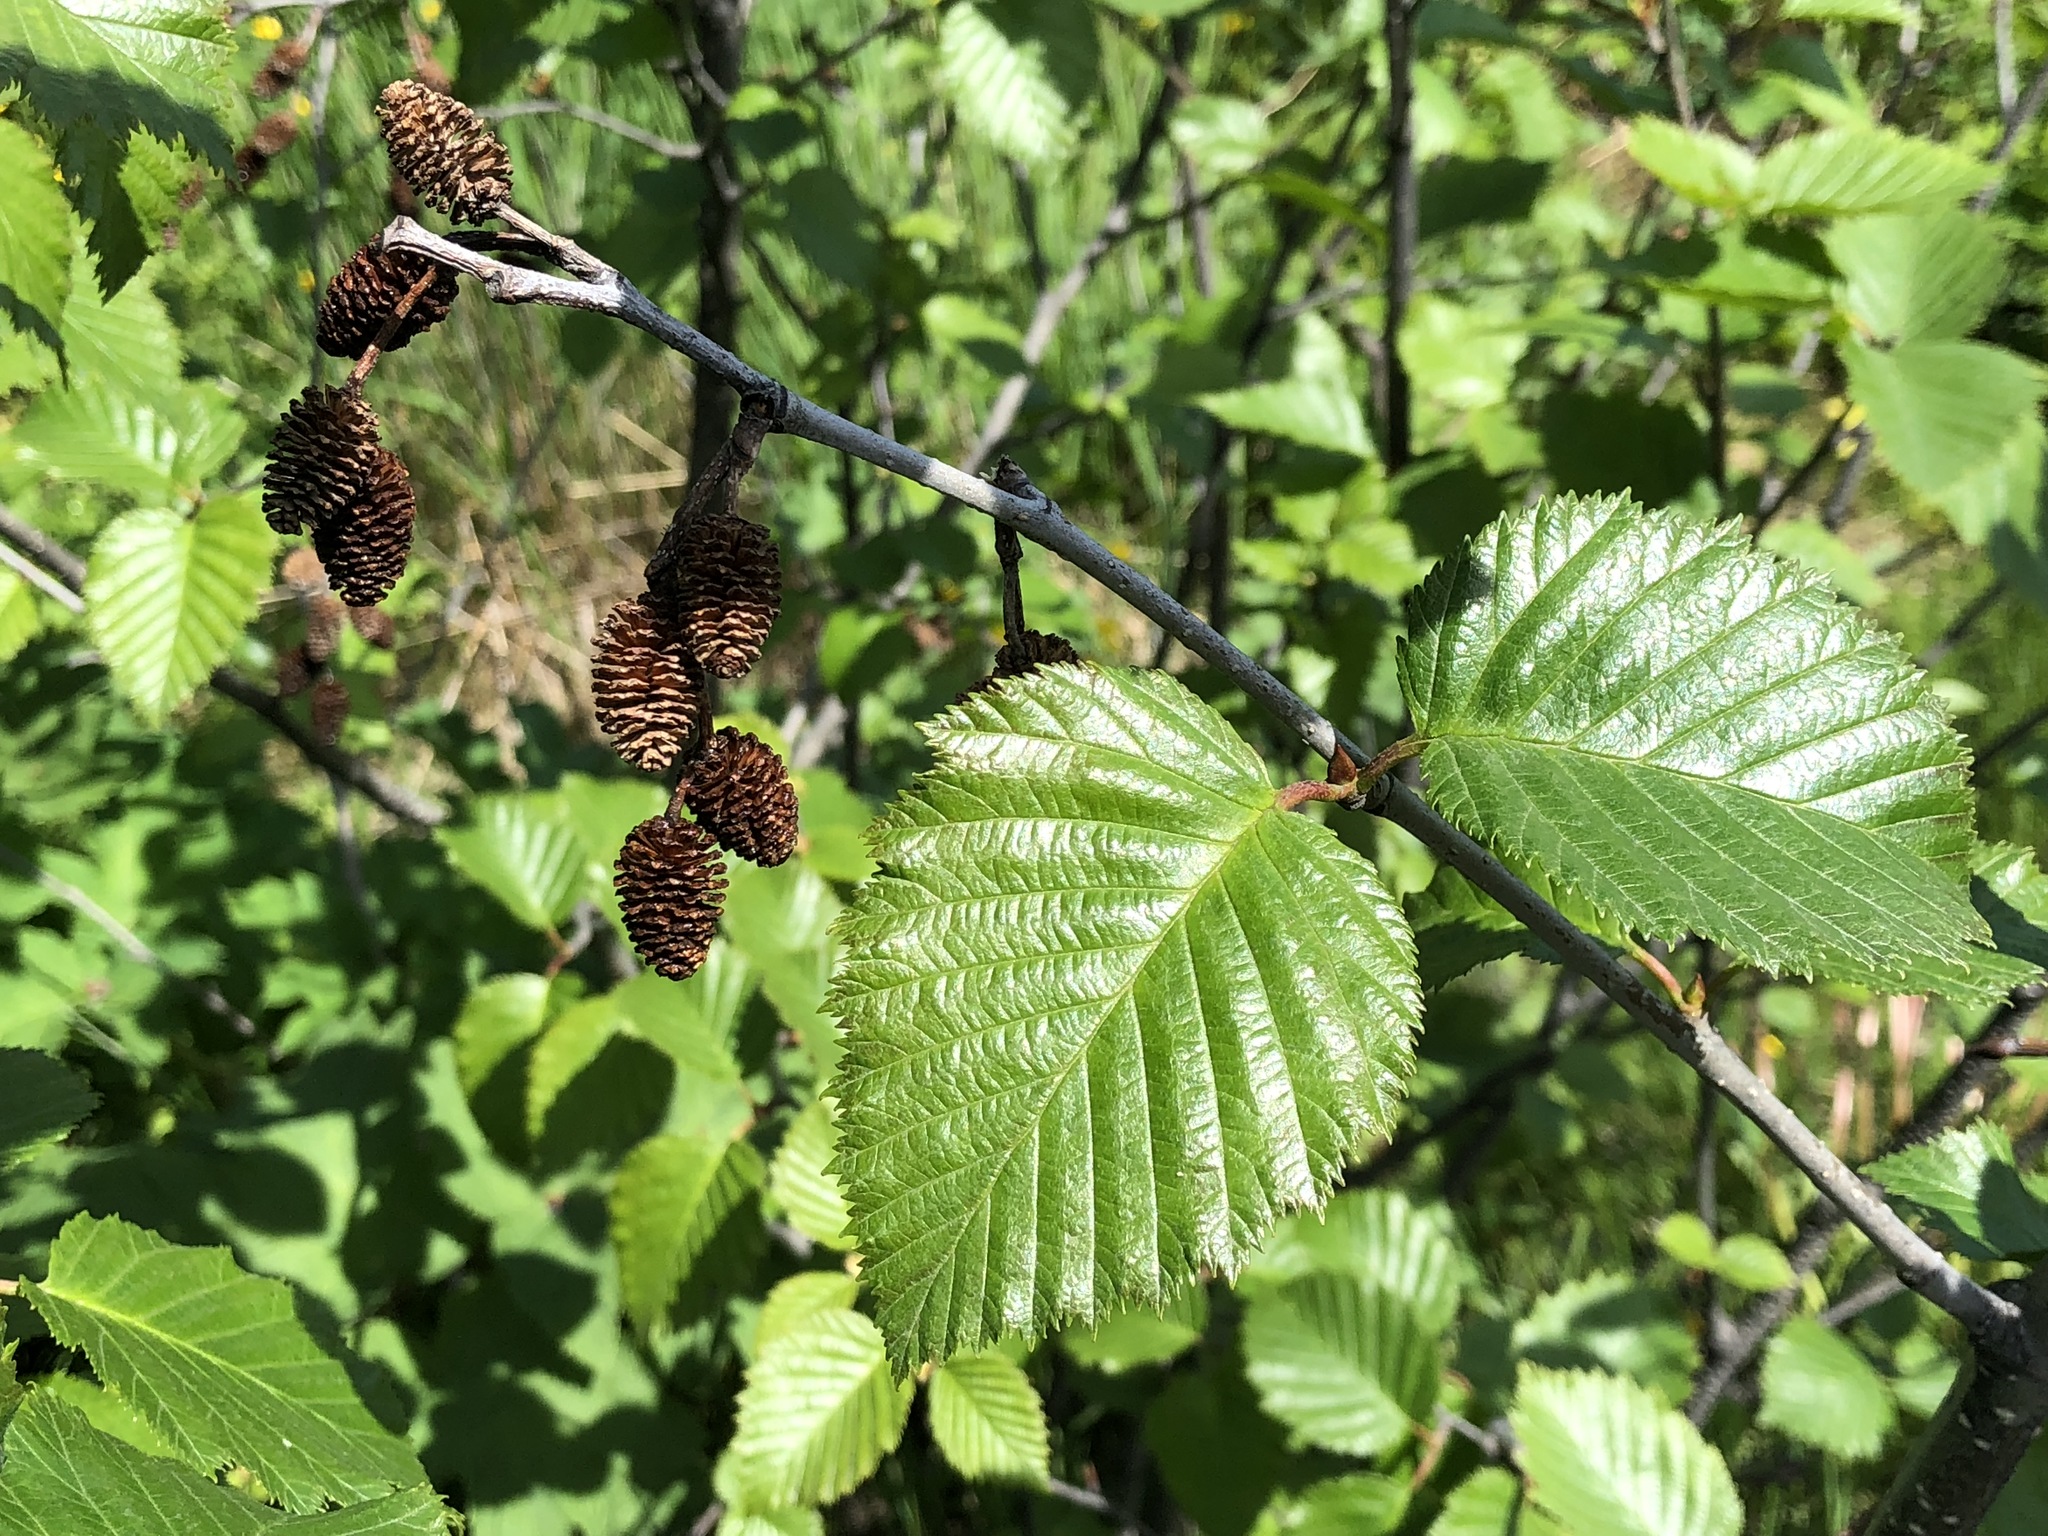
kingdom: Plantae
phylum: Tracheophyta
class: Magnoliopsida
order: Fagales
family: Betulaceae
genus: Alnus
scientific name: Alnus alnobetula
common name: Green alder
